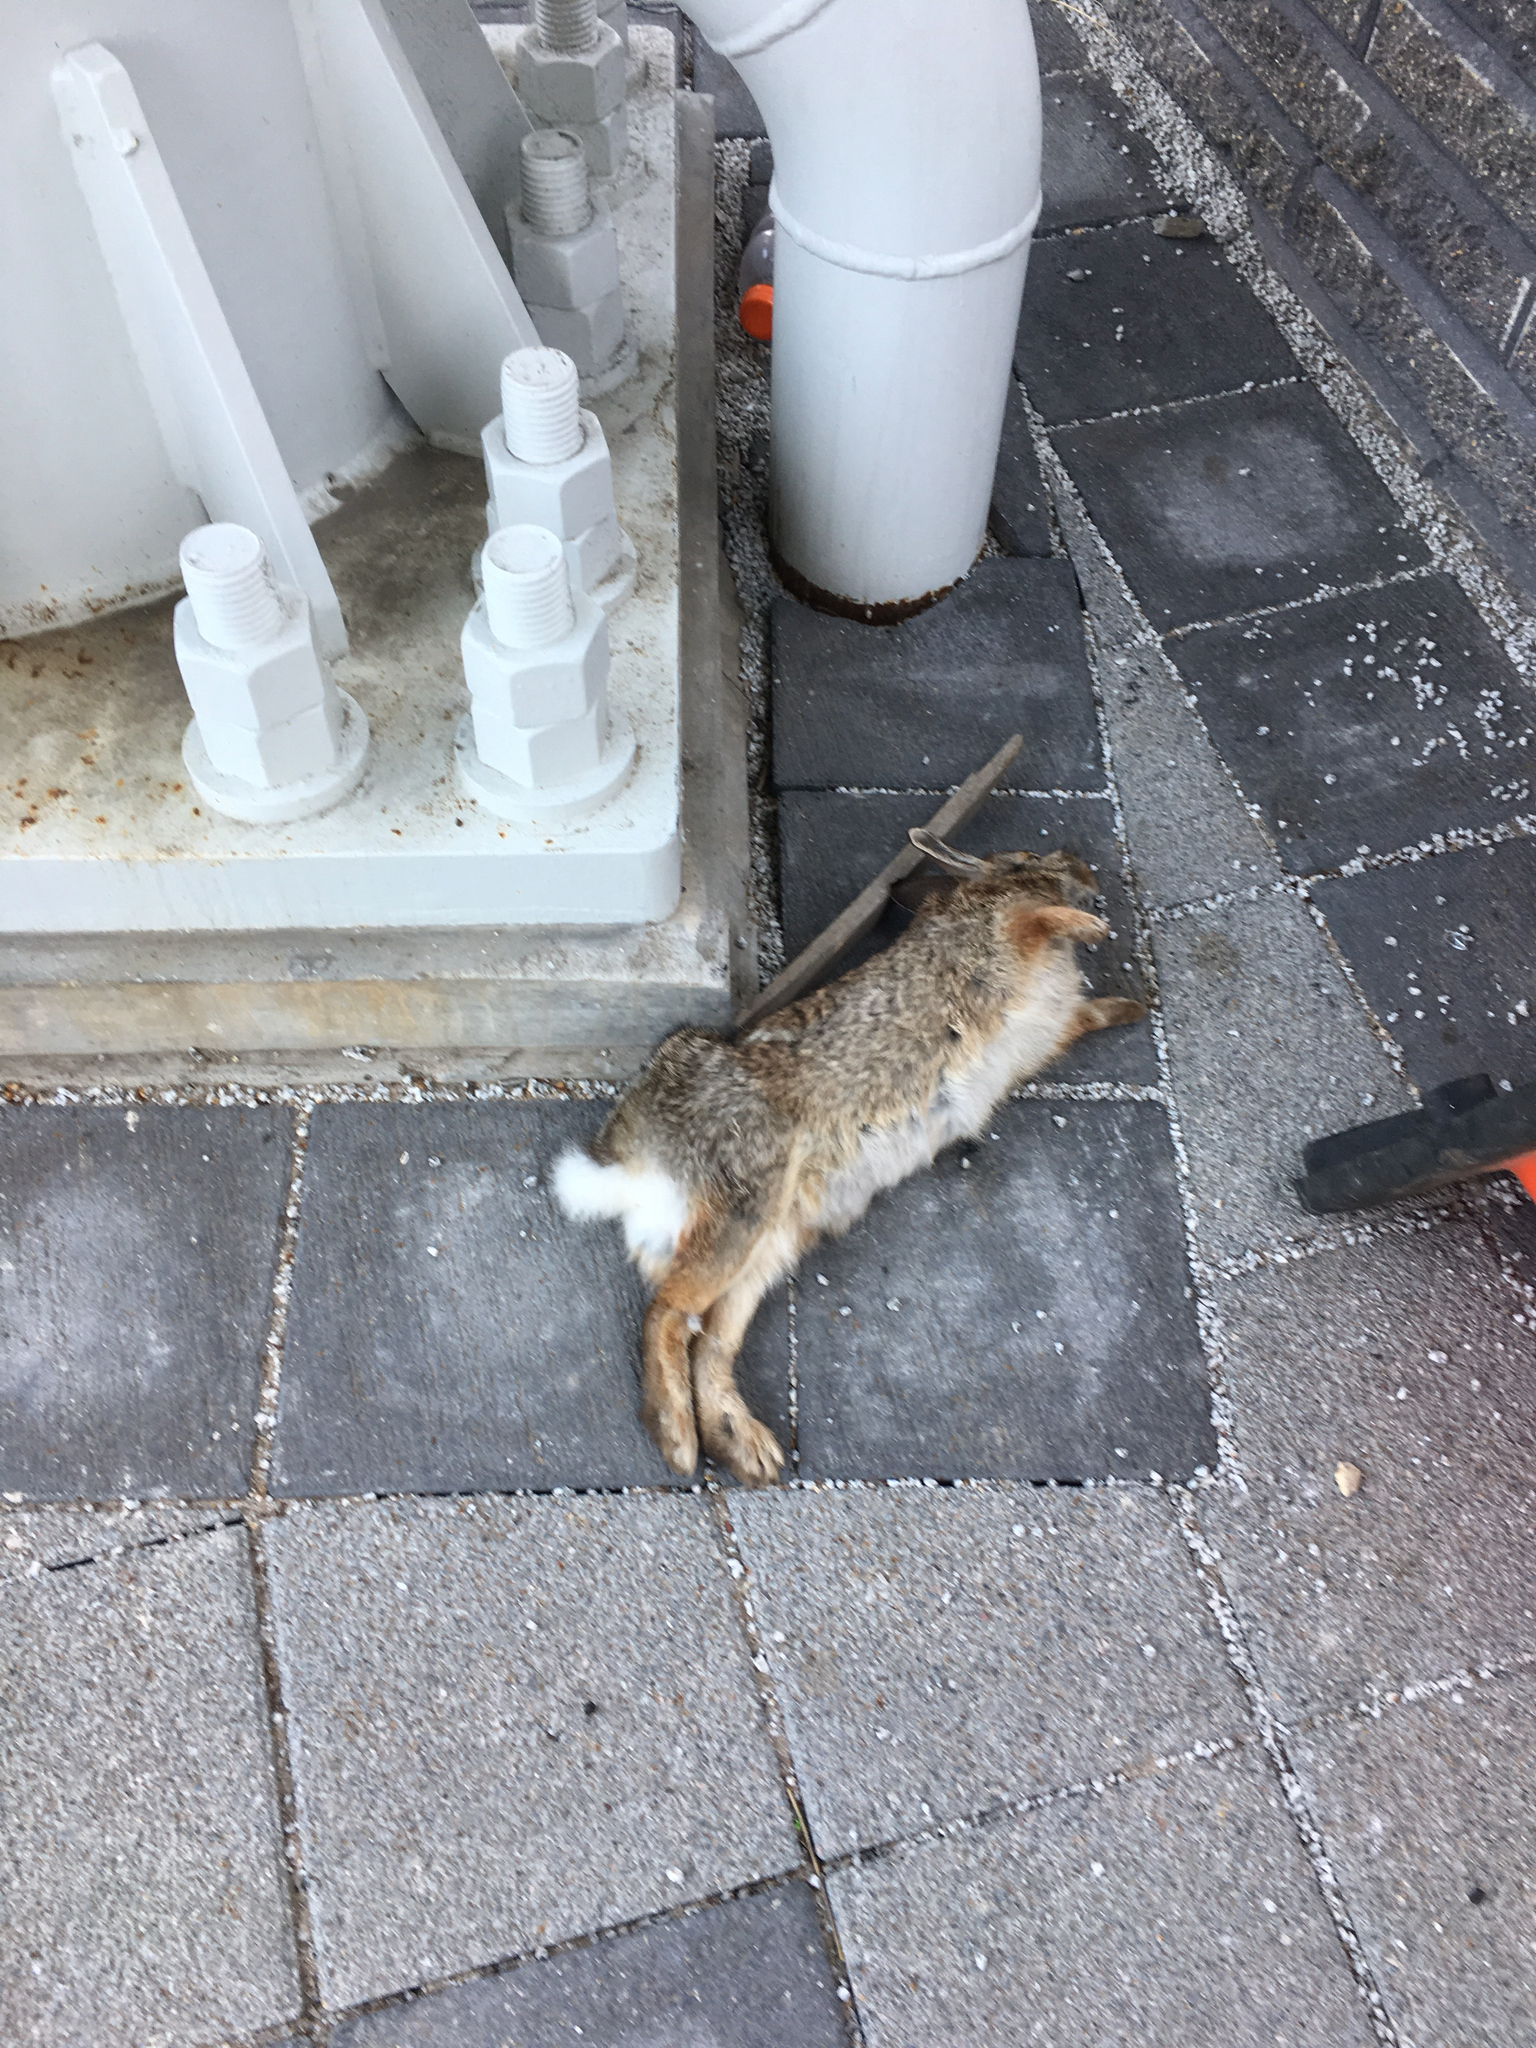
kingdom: Animalia
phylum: Chordata
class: Mammalia
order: Lagomorpha
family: Leporidae
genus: Sylvilagus
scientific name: Sylvilagus floridanus
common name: Eastern cottontail
